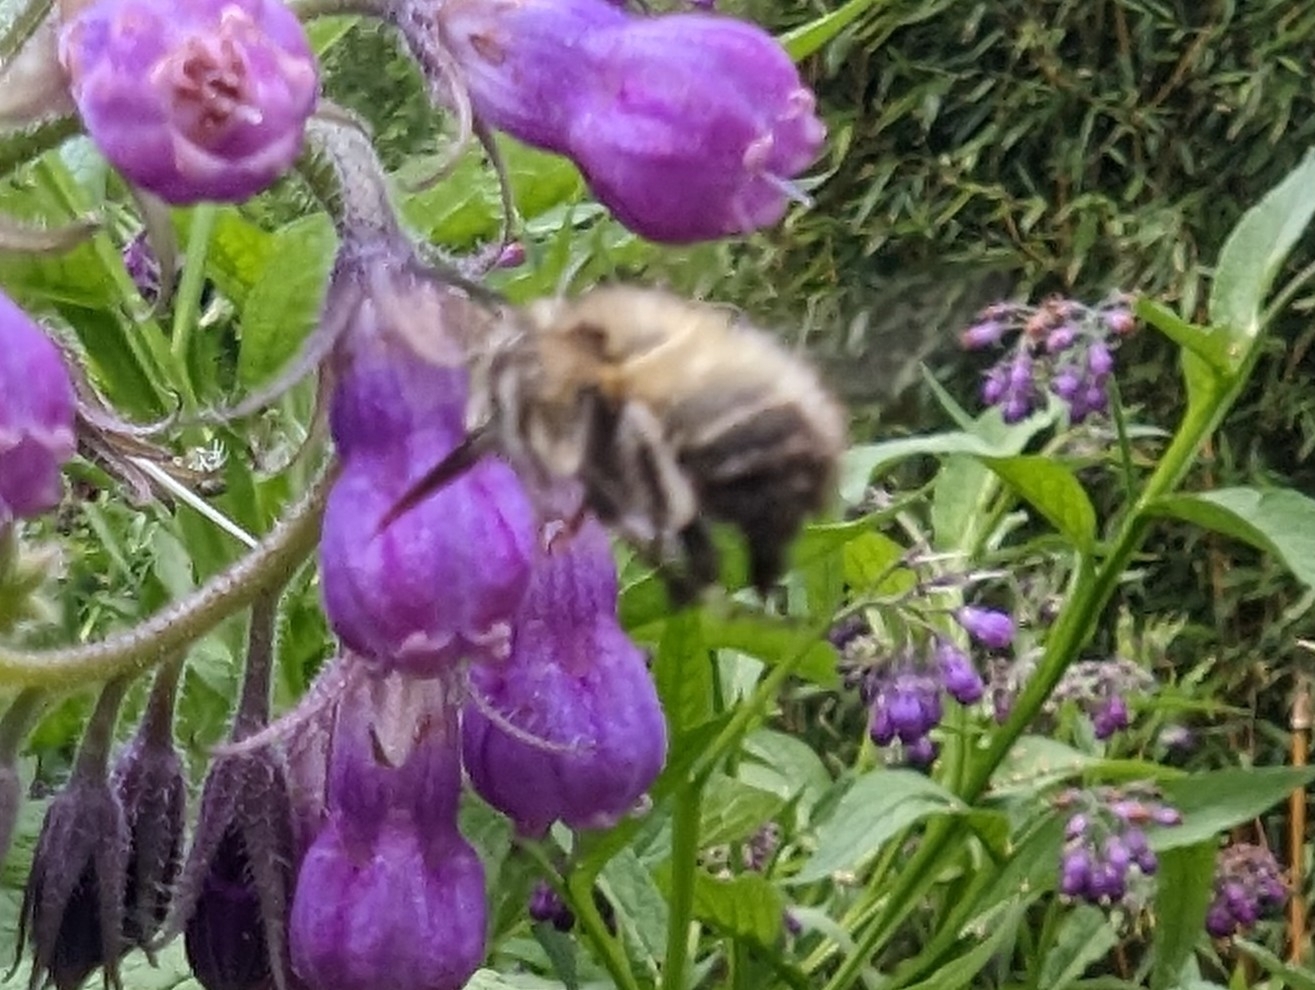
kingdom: Animalia
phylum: Arthropoda
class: Insecta
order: Hymenoptera
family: Apidae
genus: Anthophora
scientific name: Anthophora plumipes
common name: Hairy-footed flower bee
